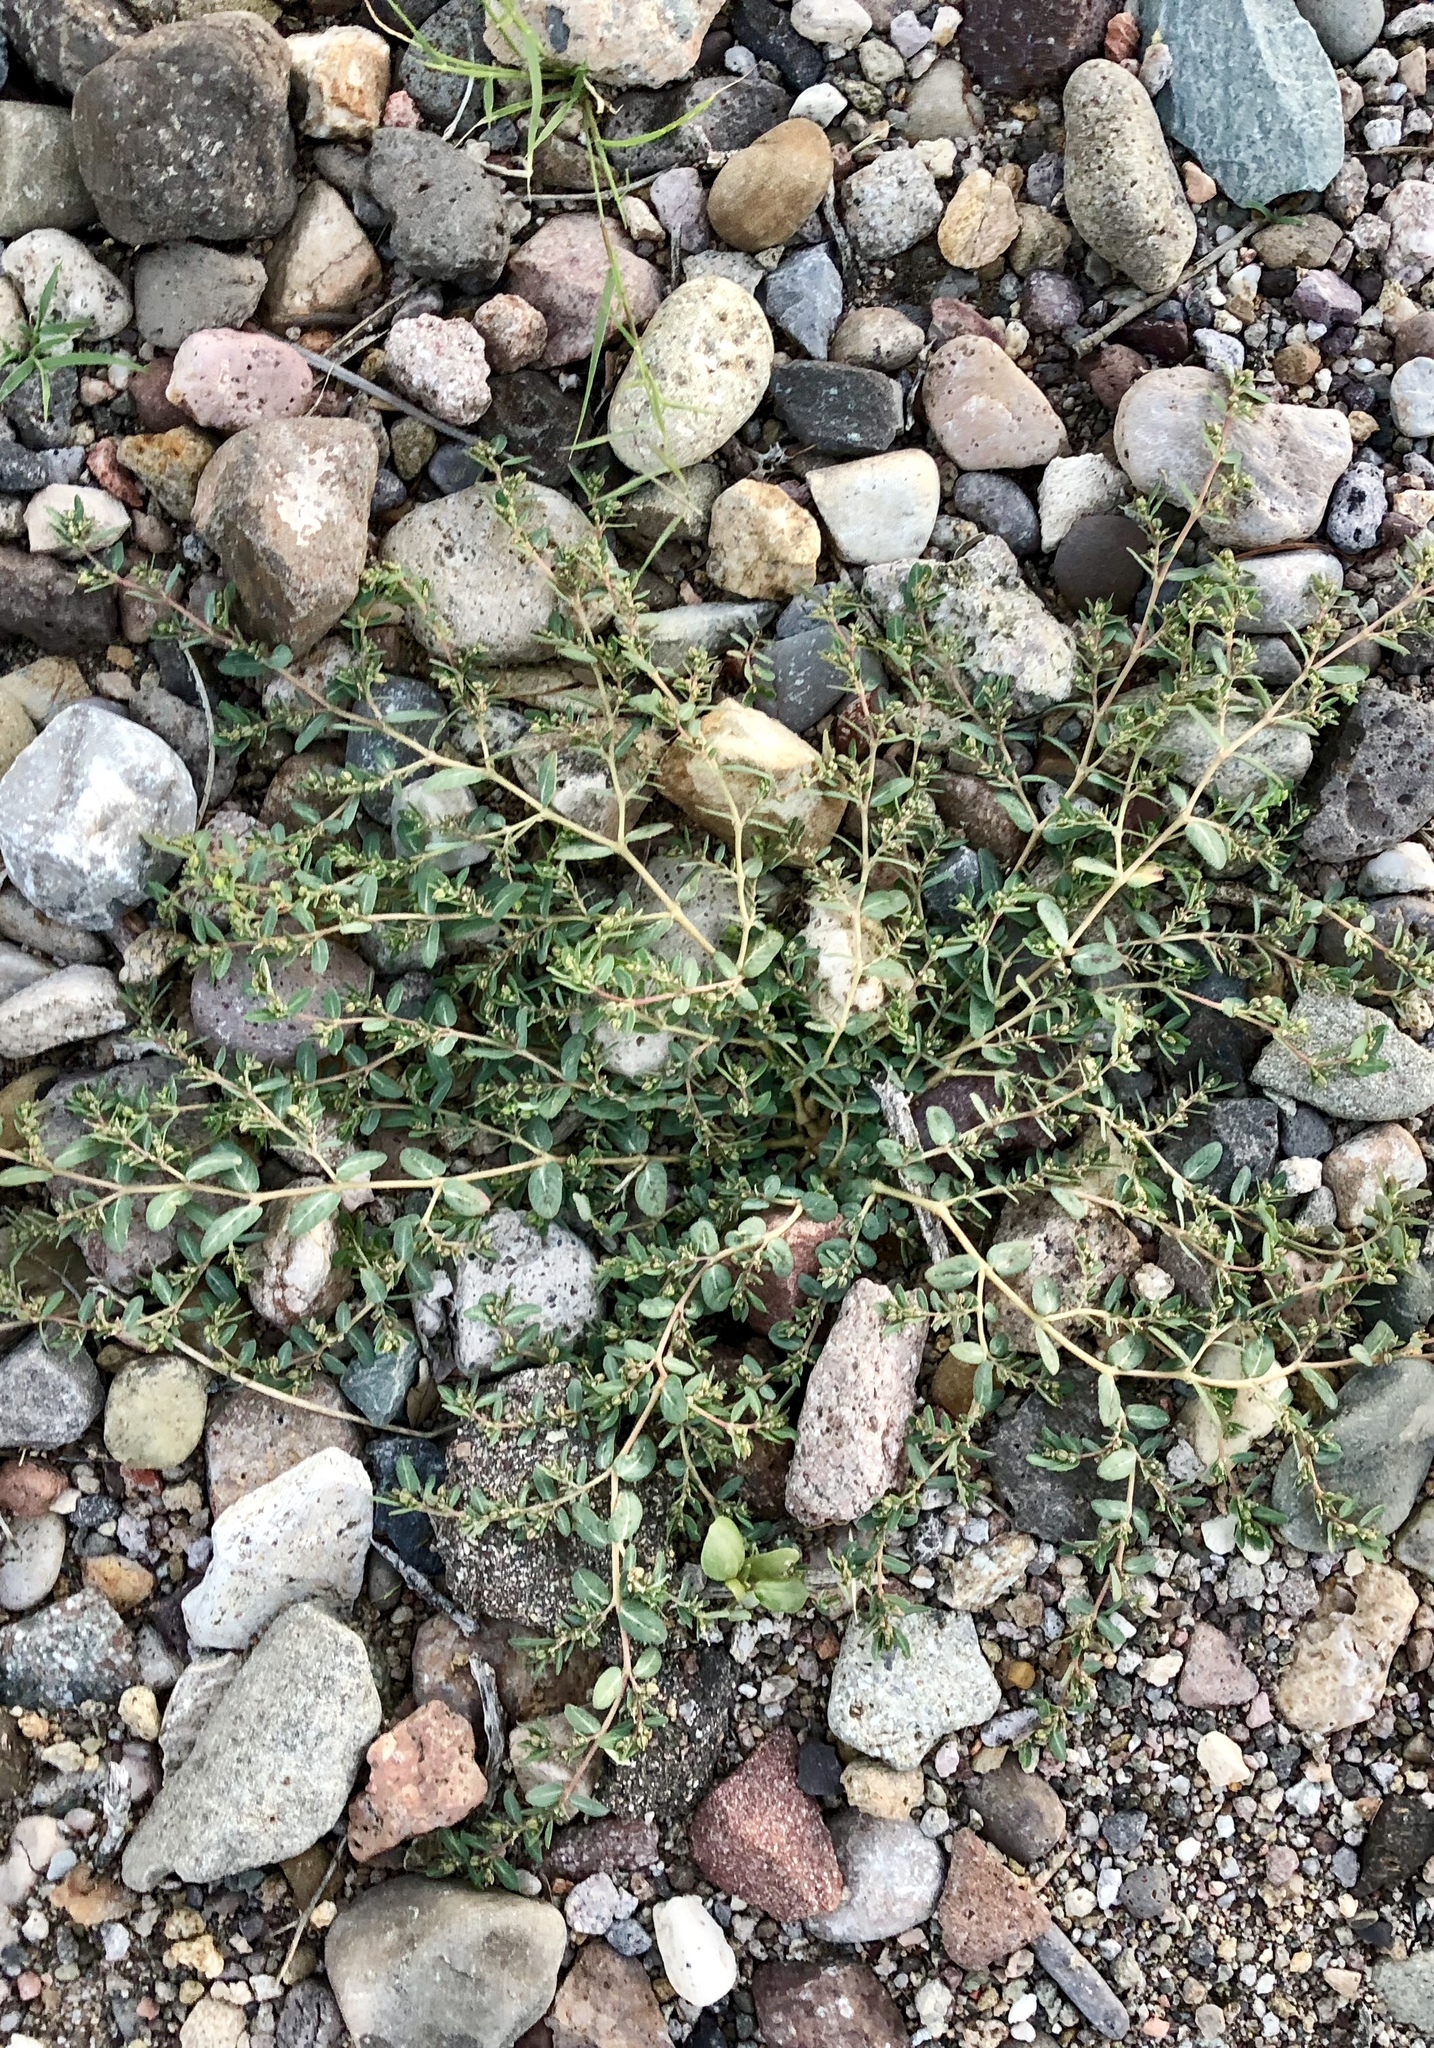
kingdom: Plantae
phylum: Tracheophyta
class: Magnoliopsida
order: Malpighiales
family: Euphorbiaceae
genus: Euphorbia
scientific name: Euphorbia abramsiana
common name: Abram's spurge
